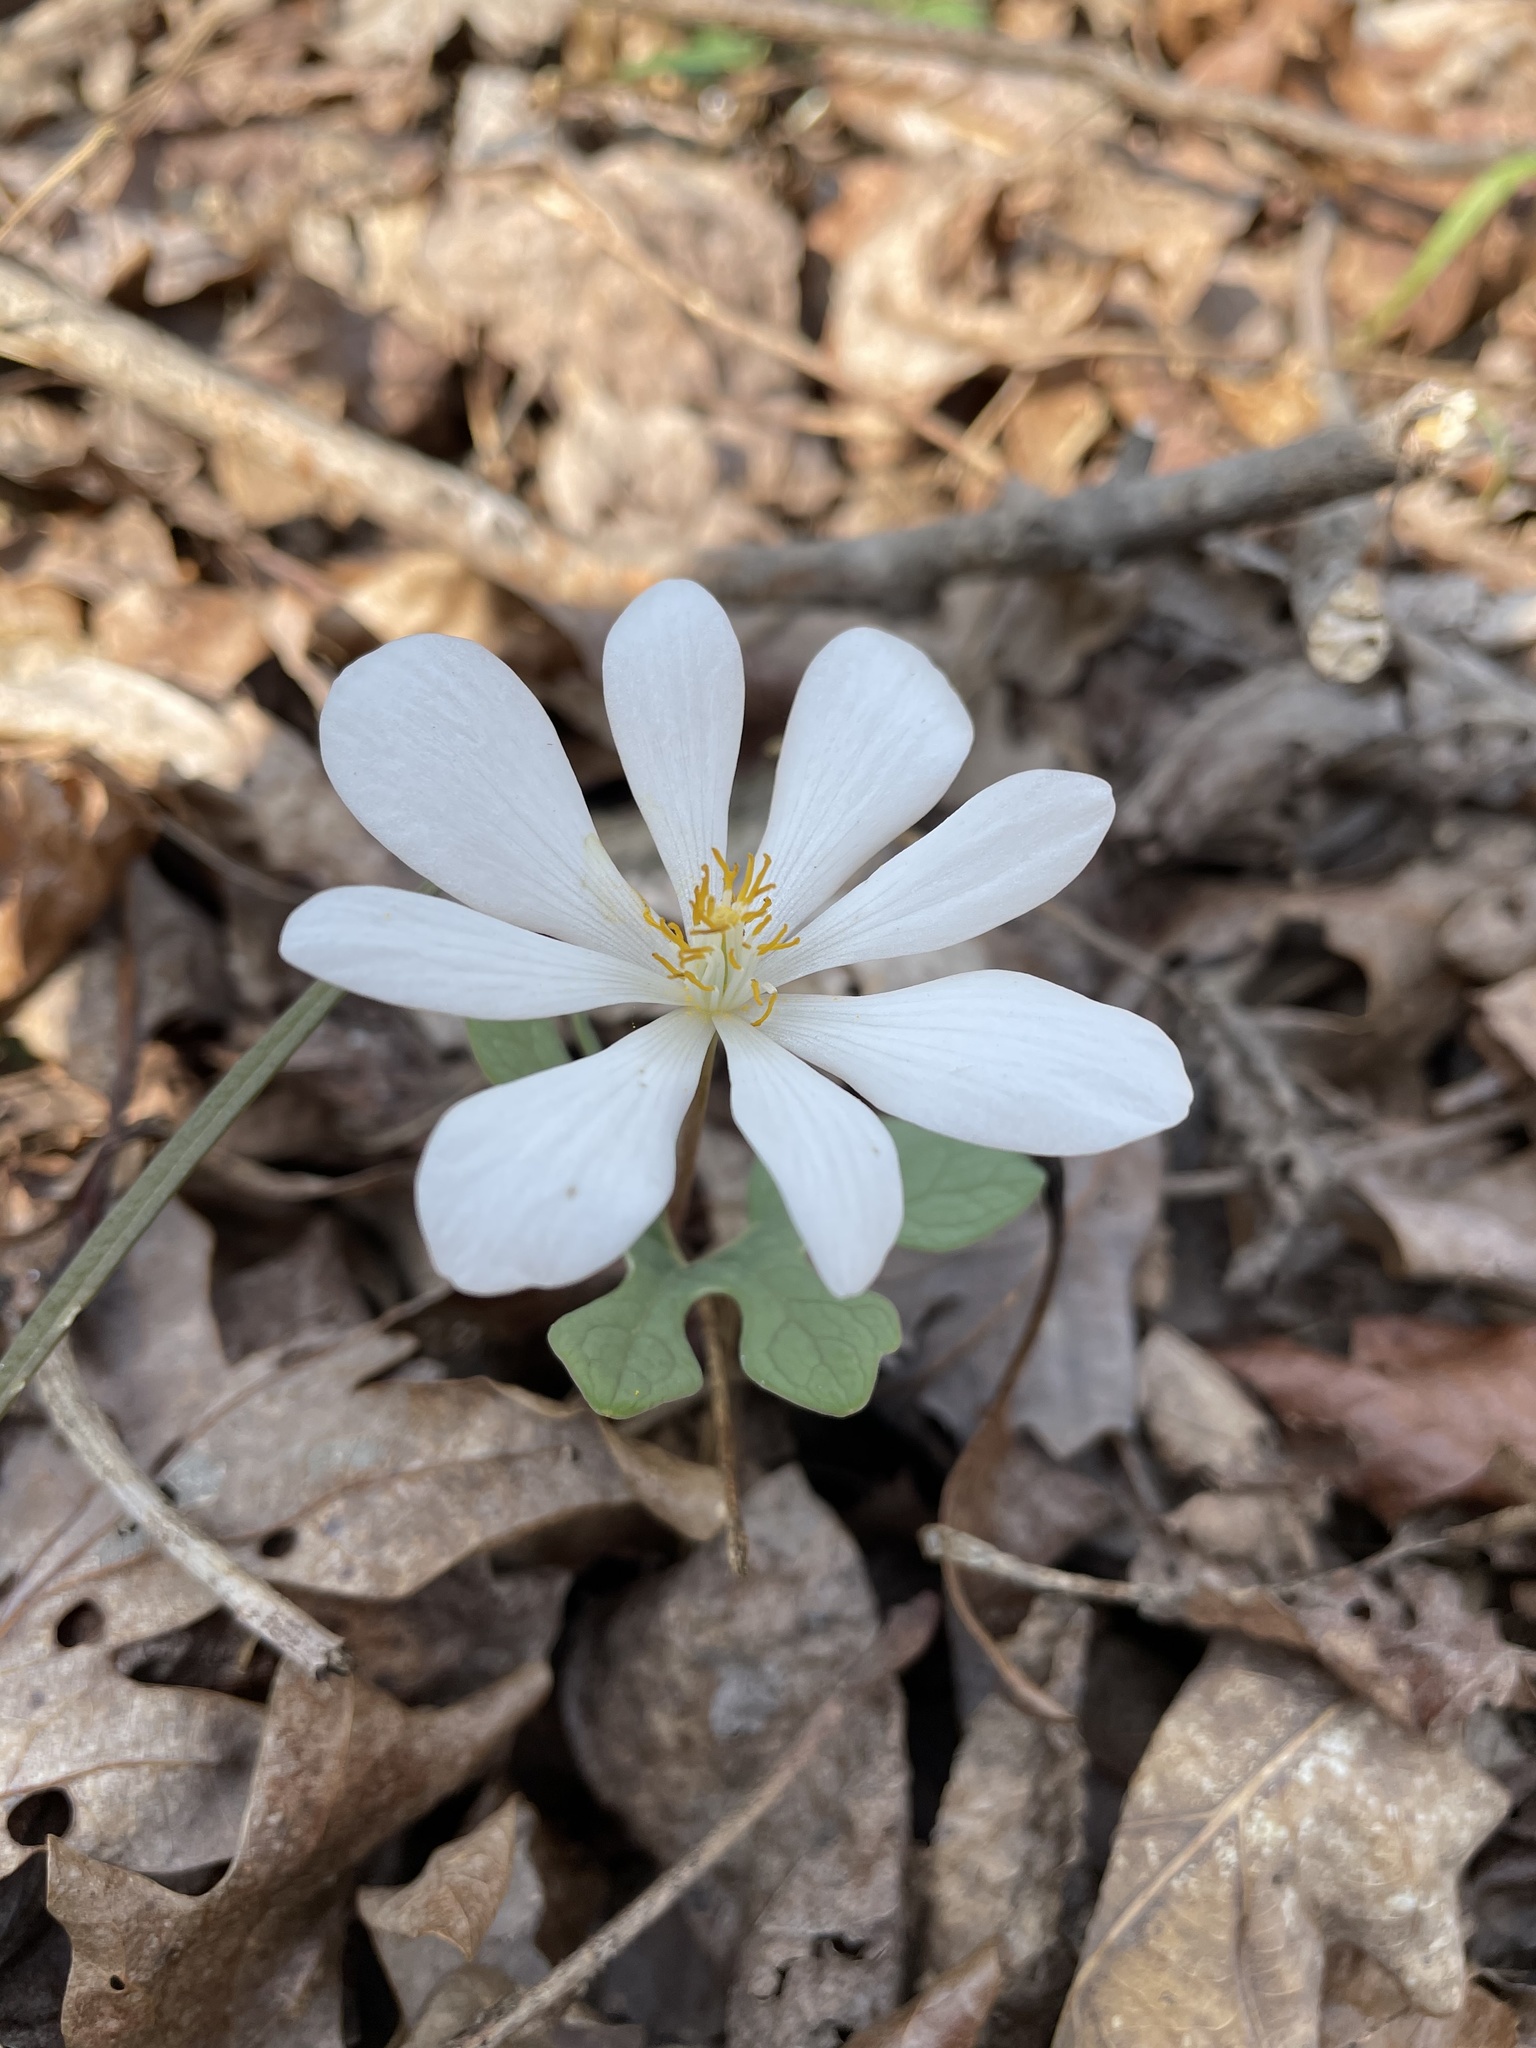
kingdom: Plantae
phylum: Tracheophyta
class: Magnoliopsida
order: Ranunculales
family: Papaveraceae
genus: Sanguinaria
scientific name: Sanguinaria canadensis
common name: Bloodroot
